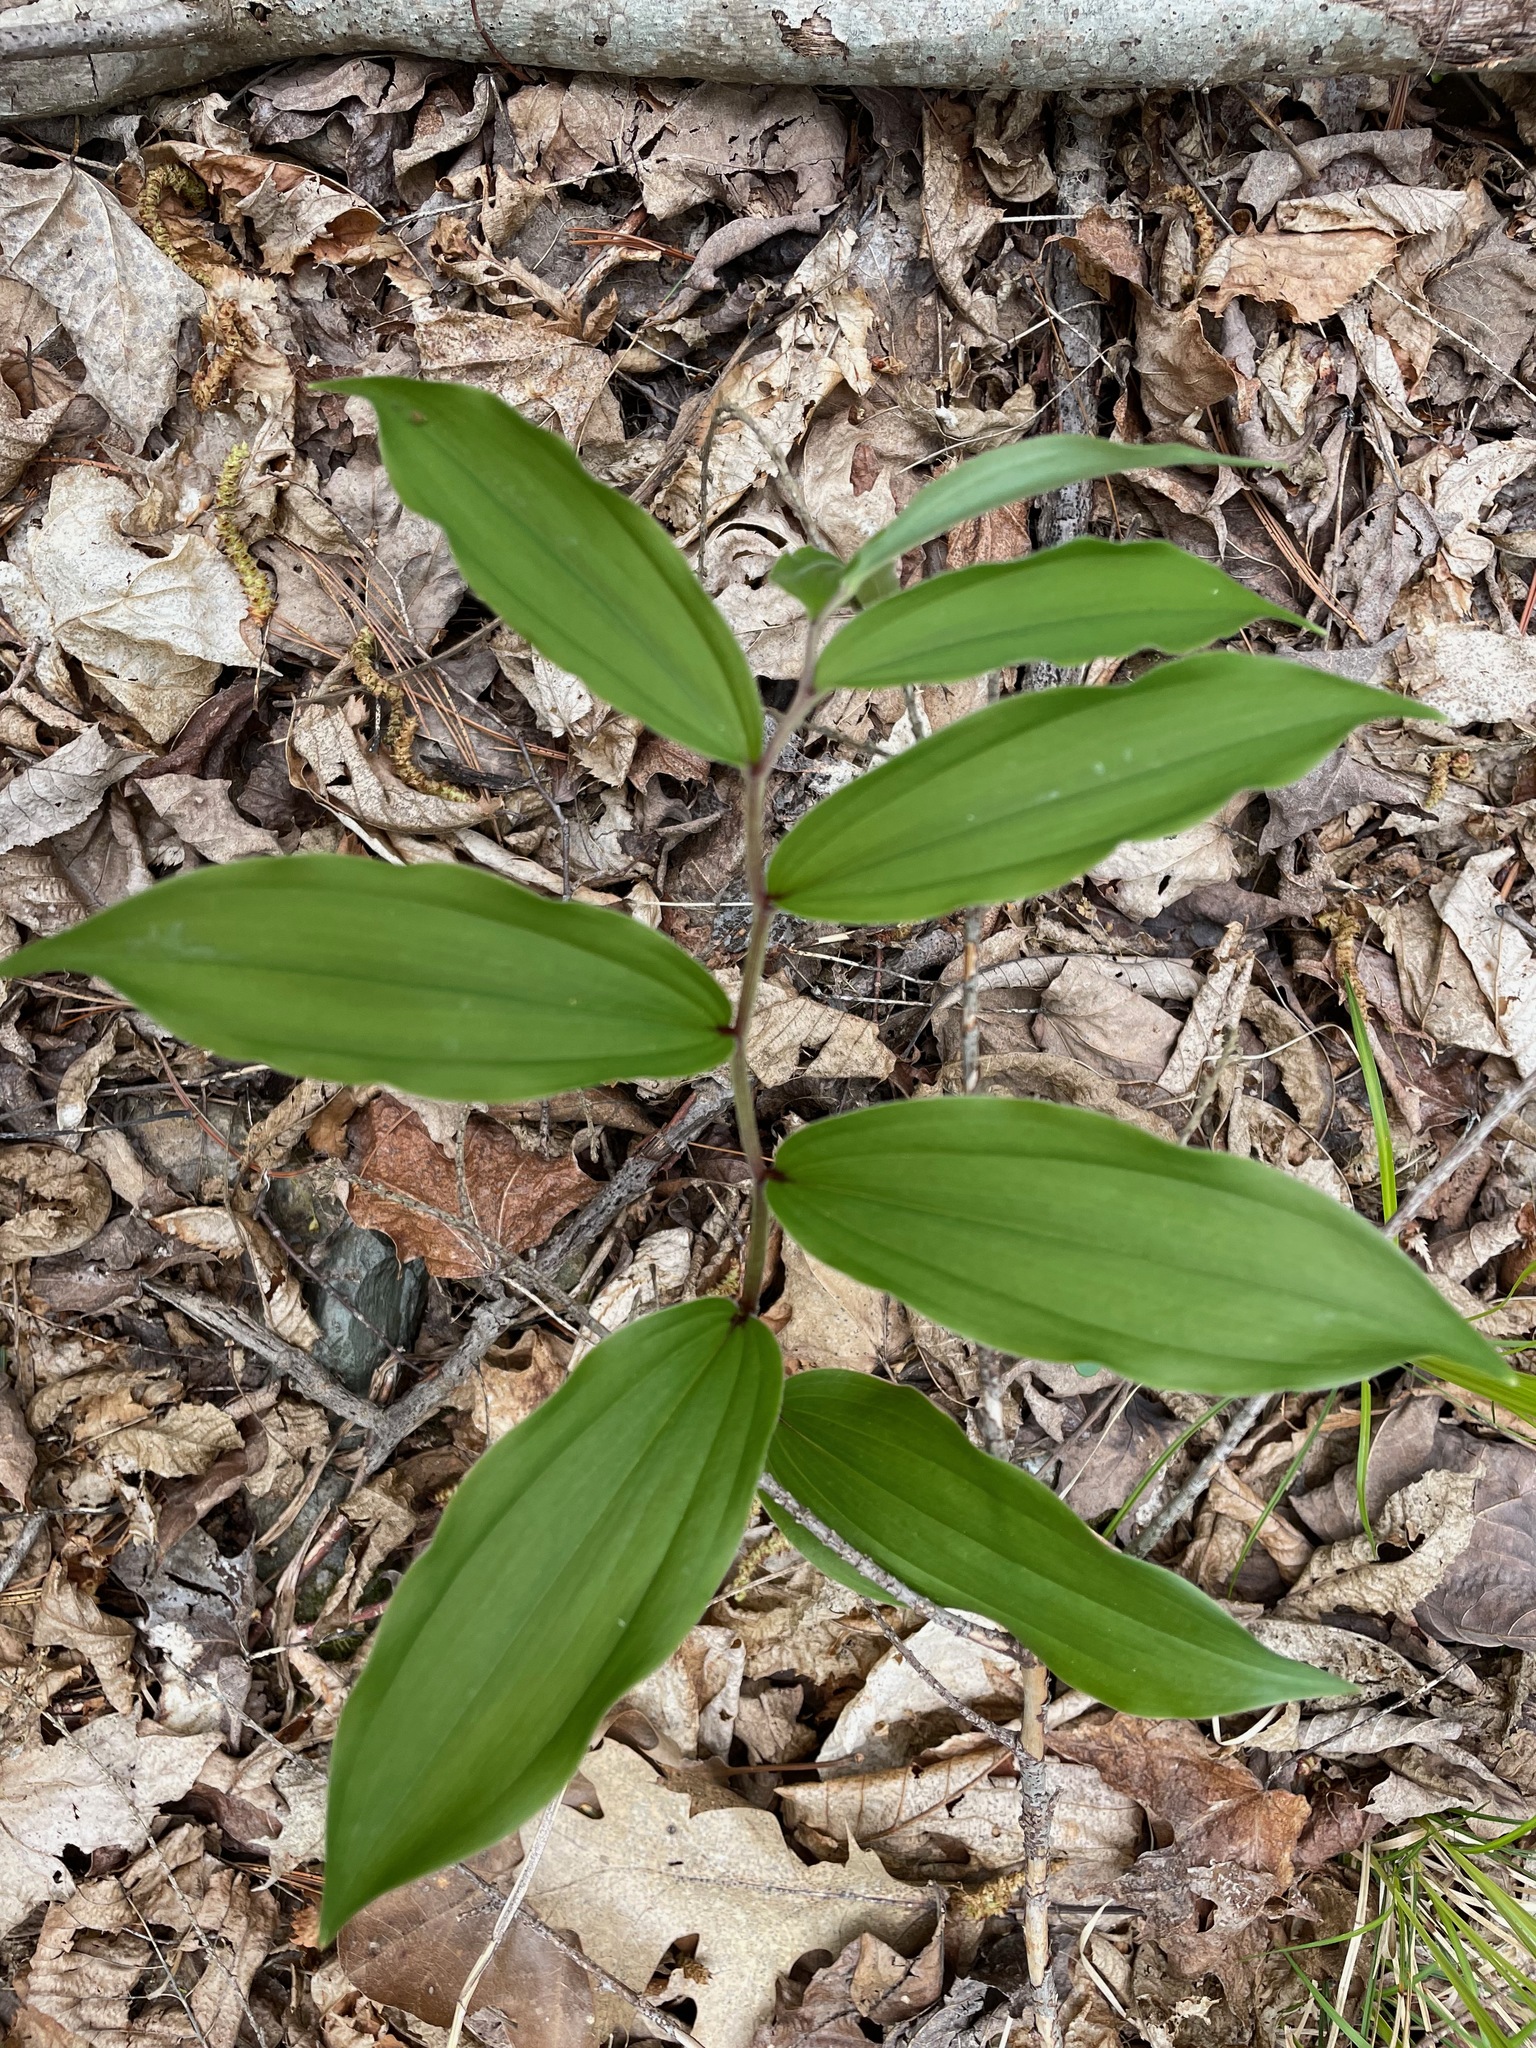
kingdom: Plantae
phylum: Tracheophyta
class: Liliopsida
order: Asparagales
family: Asparagaceae
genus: Maianthemum
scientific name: Maianthemum racemosum
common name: False spikenard
